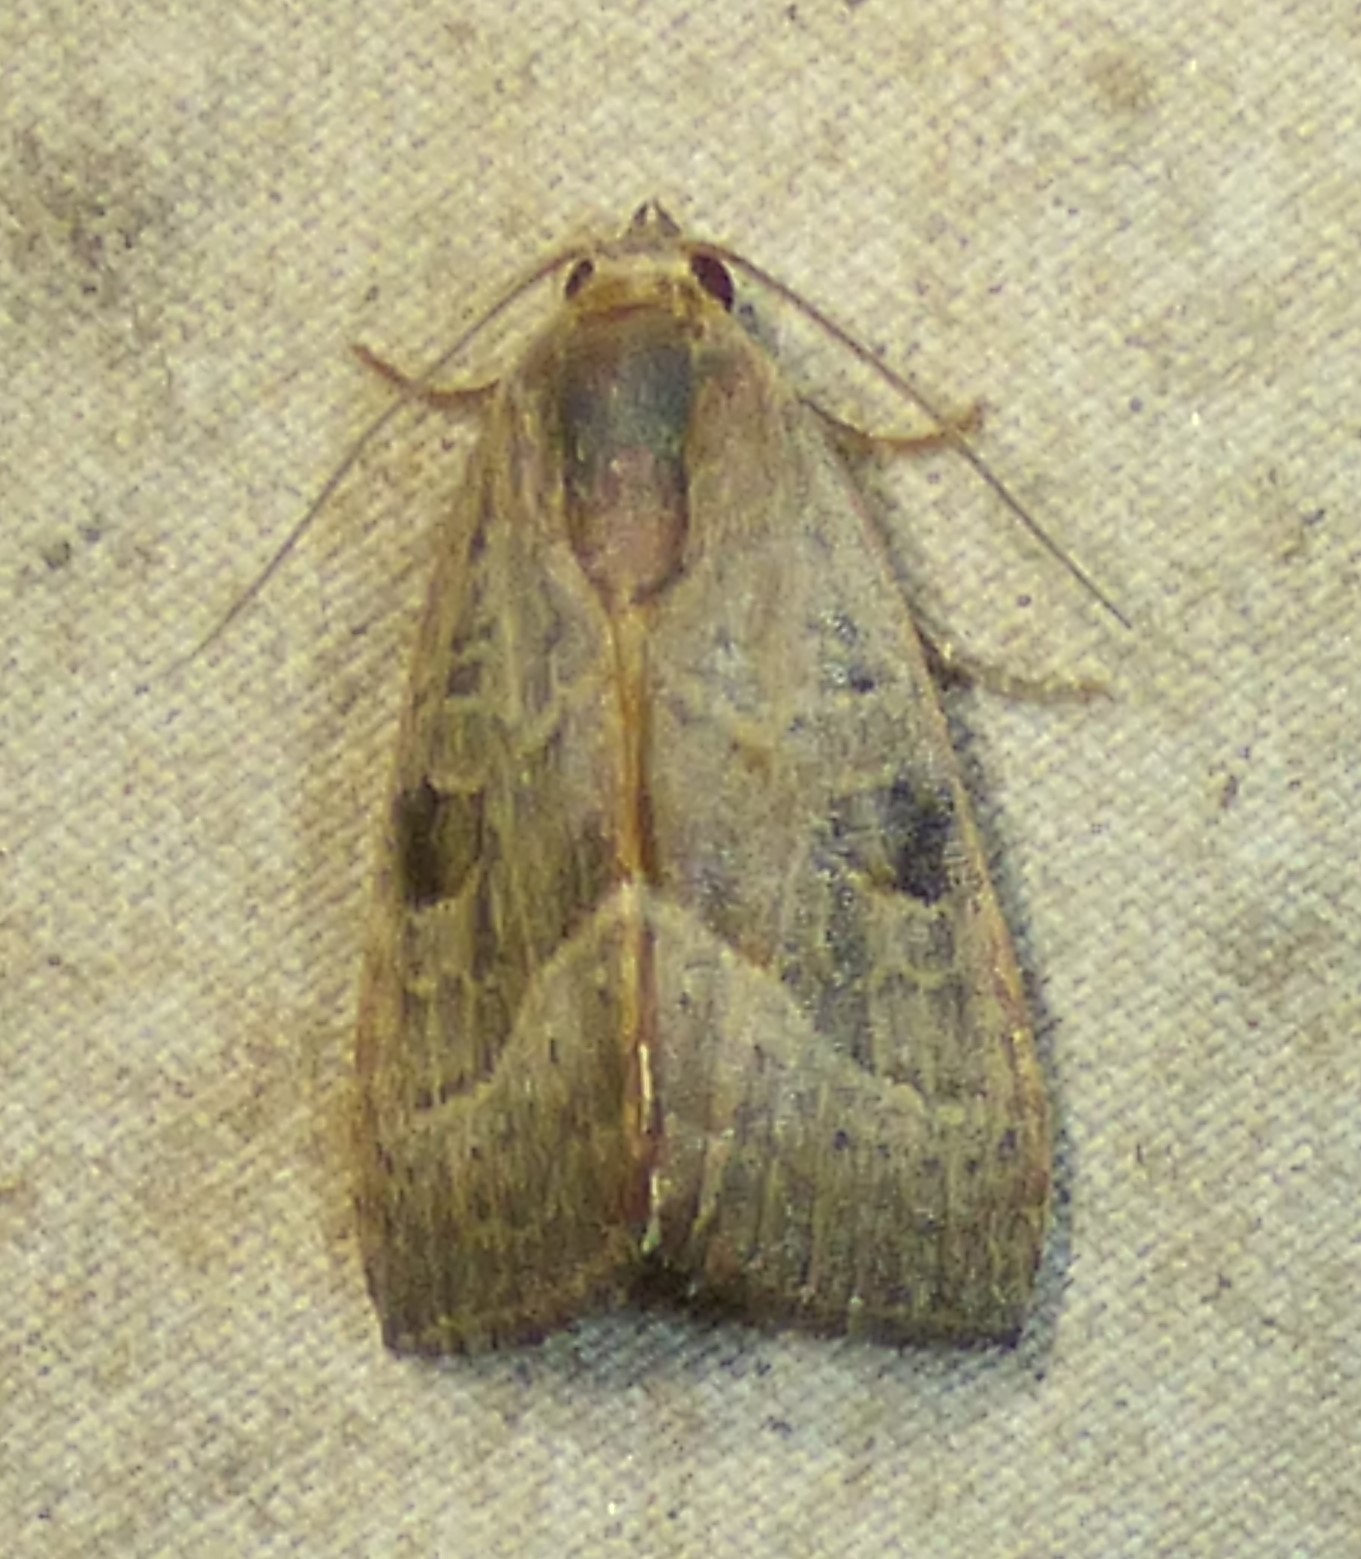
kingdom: Animalia
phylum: Arthropoda
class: Insecta
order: Lepidoptera
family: Noctuidae
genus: Galgula
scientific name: Galgula partita
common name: Wedgeling
